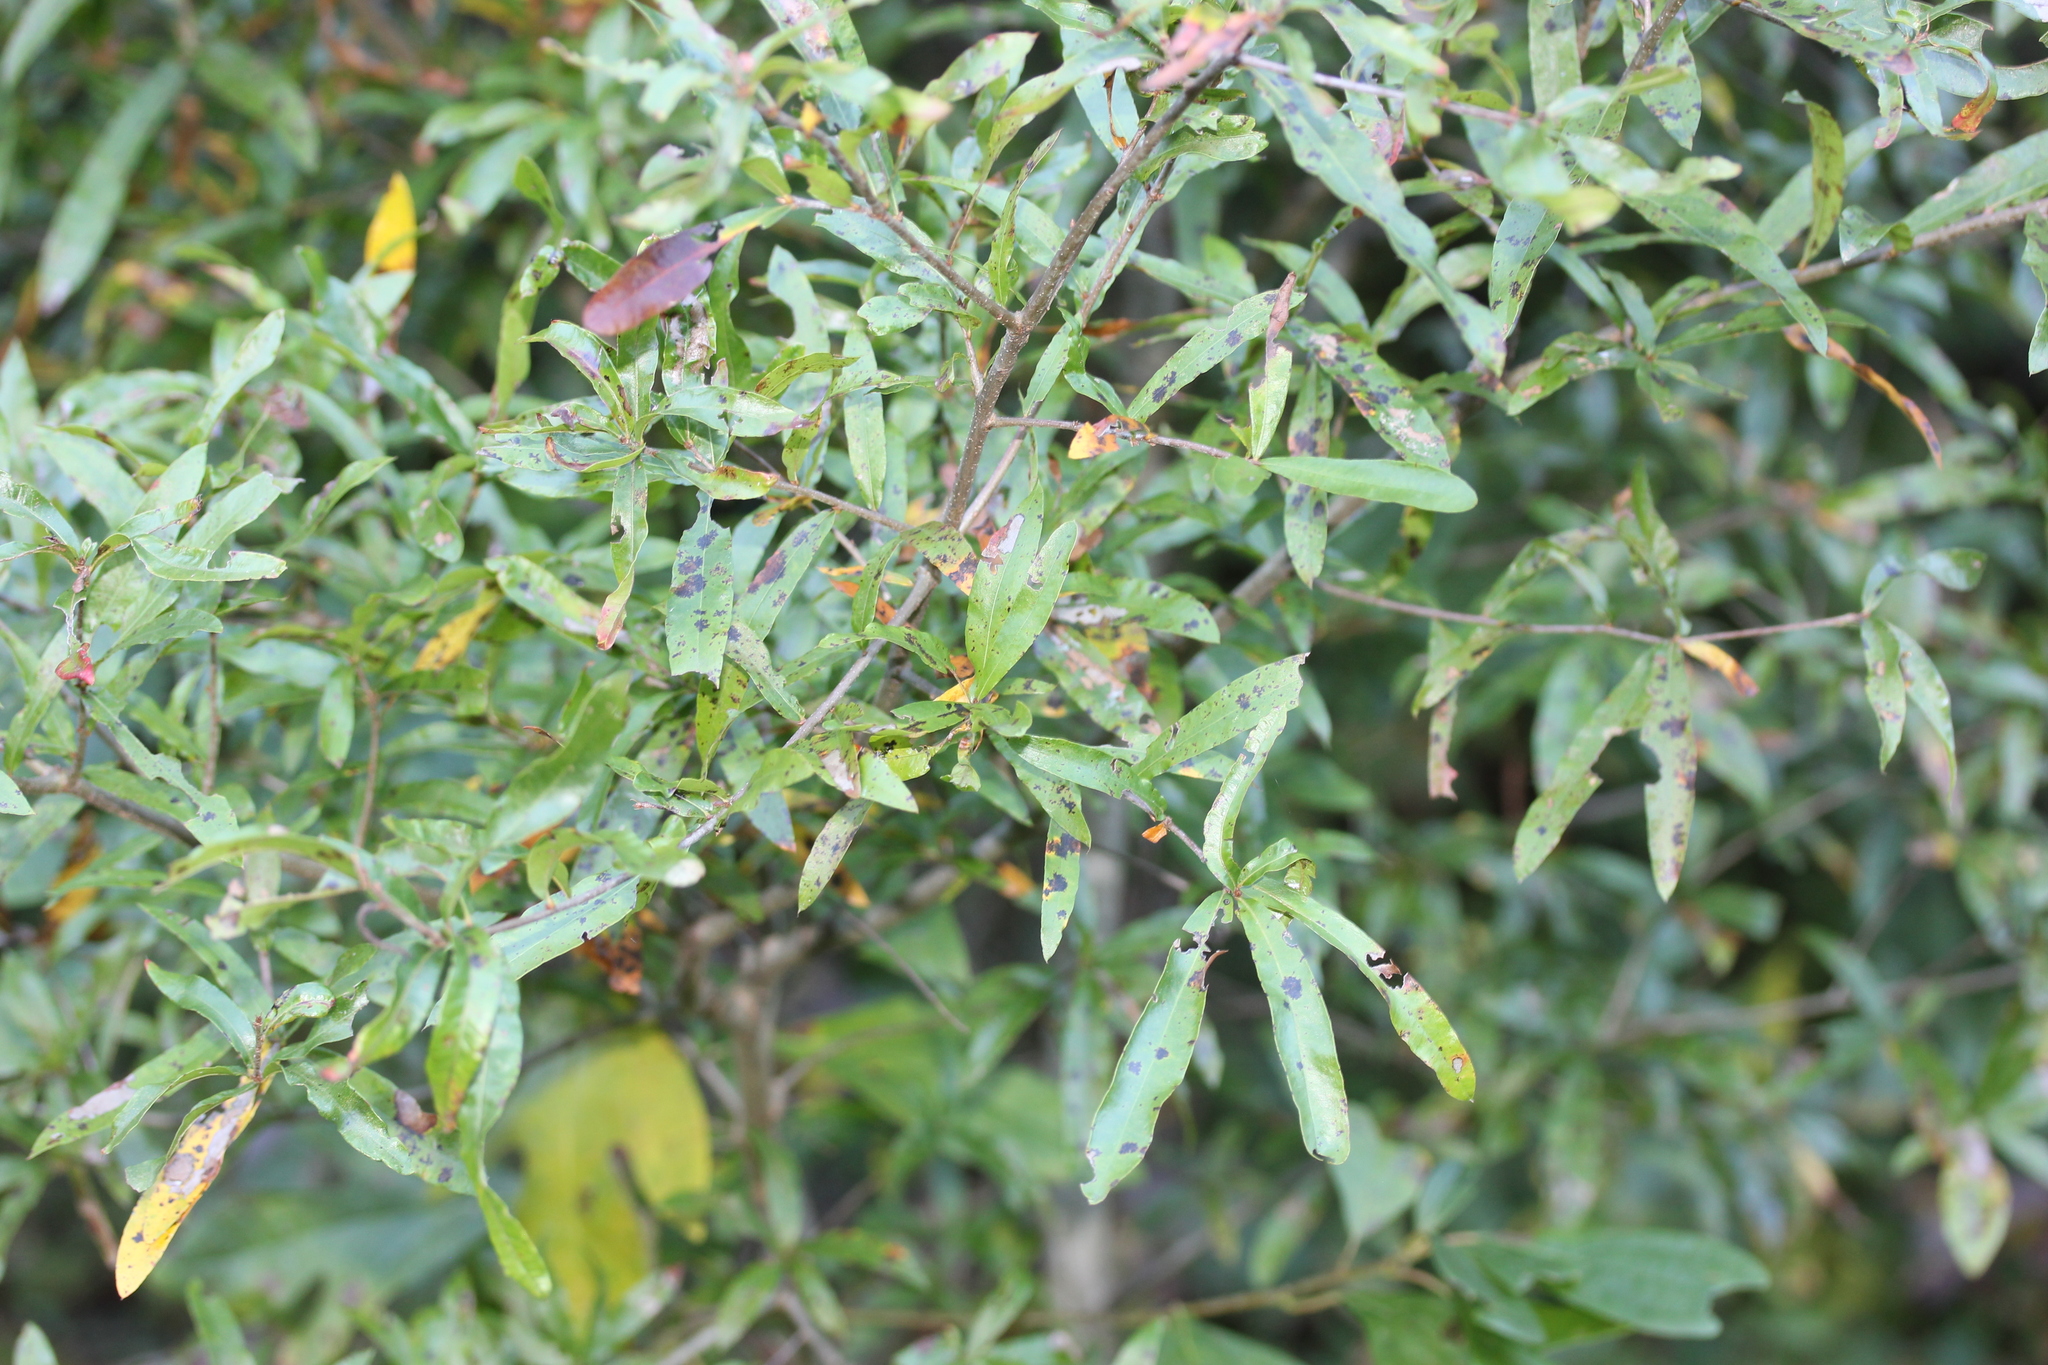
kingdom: Plantae
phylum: Tracheophyta
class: Magnoliopsida
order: Fagales
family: Fagaceae
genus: Quercus
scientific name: Quercus phellos
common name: Willow oak
